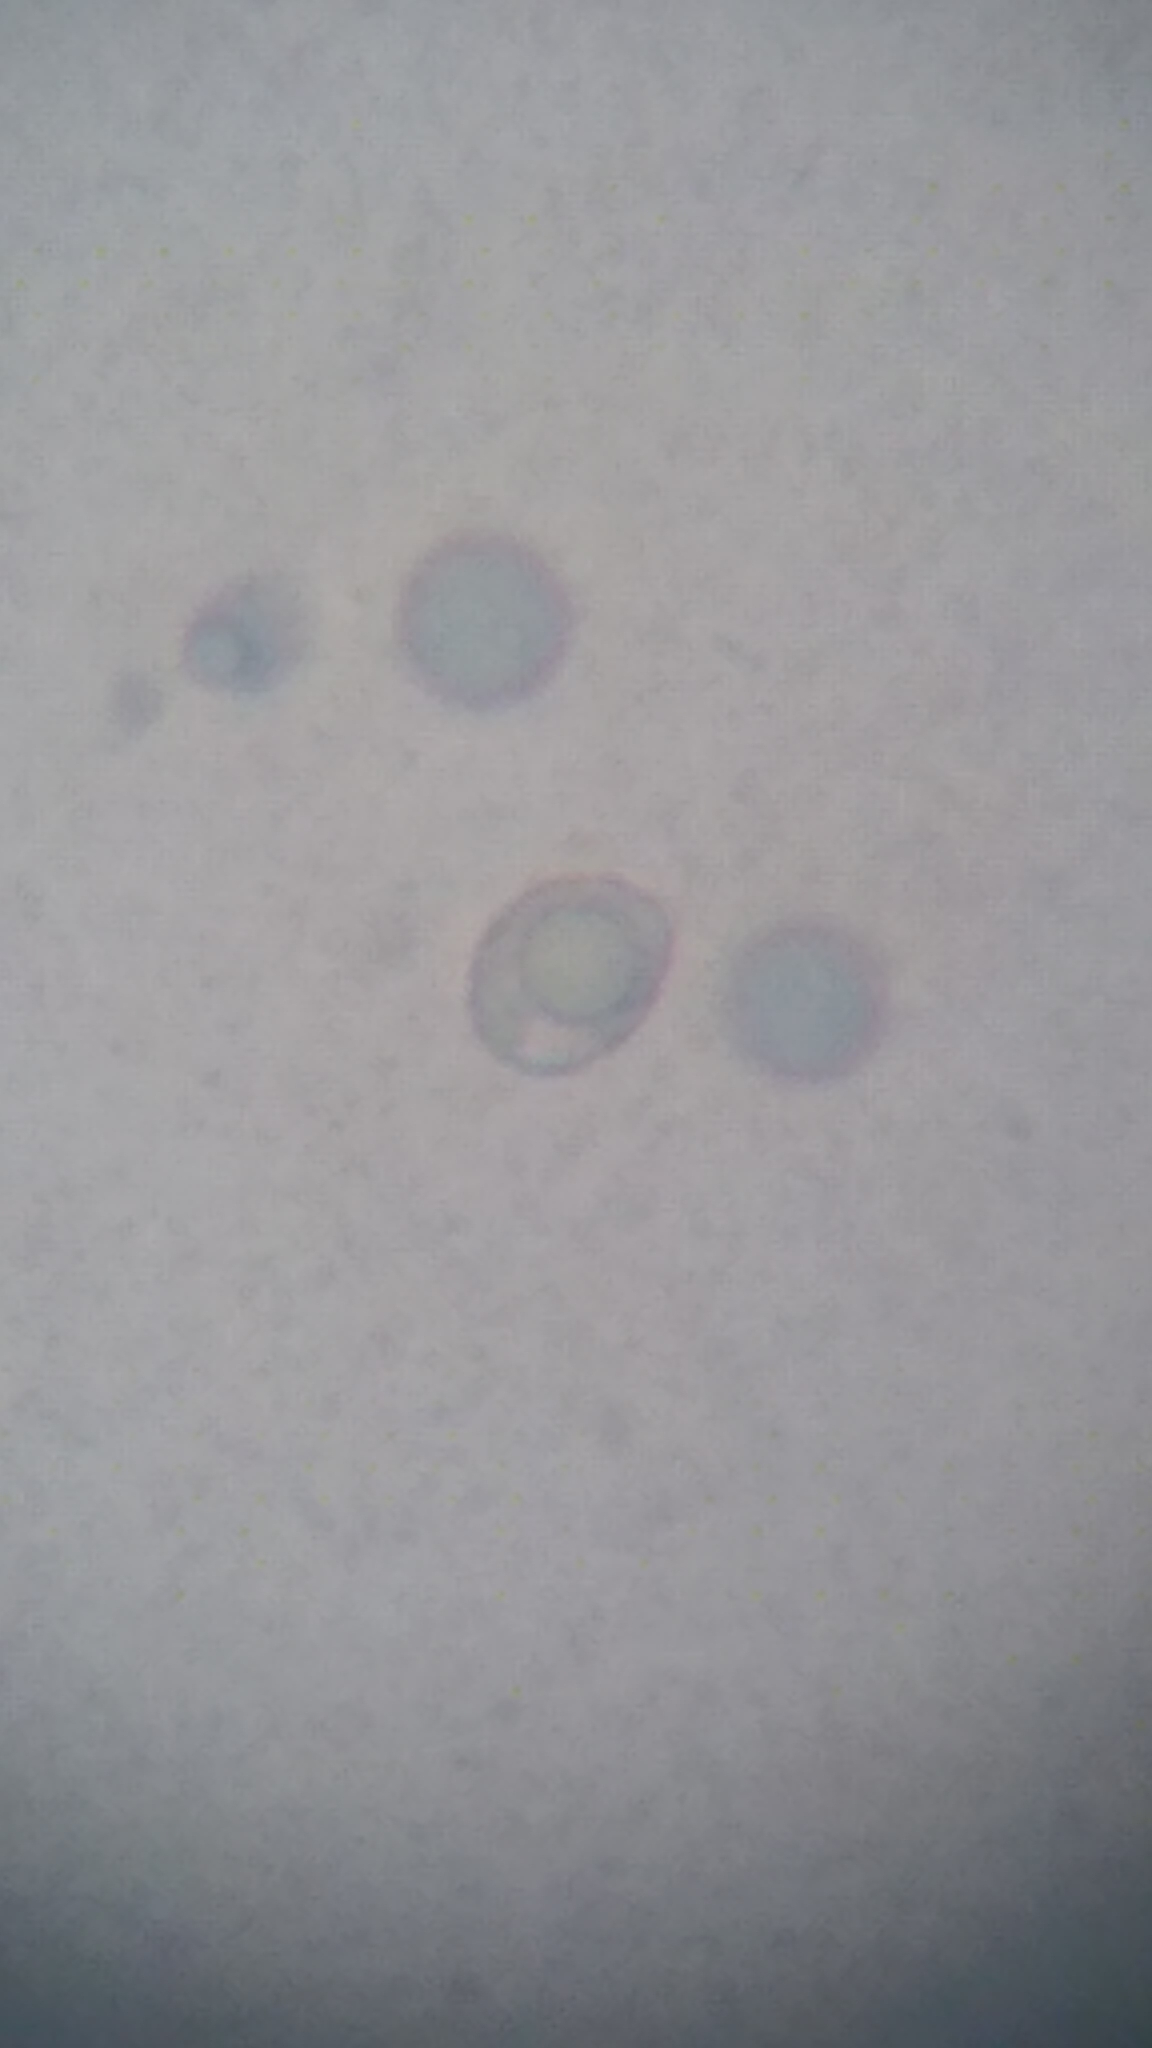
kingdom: Fungi
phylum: Basidiomycota
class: Agaricomycetes
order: Agaricales
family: Amanitaceae
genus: Amanita
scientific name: Amanita elongata
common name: Peck's yellow dust amanita
